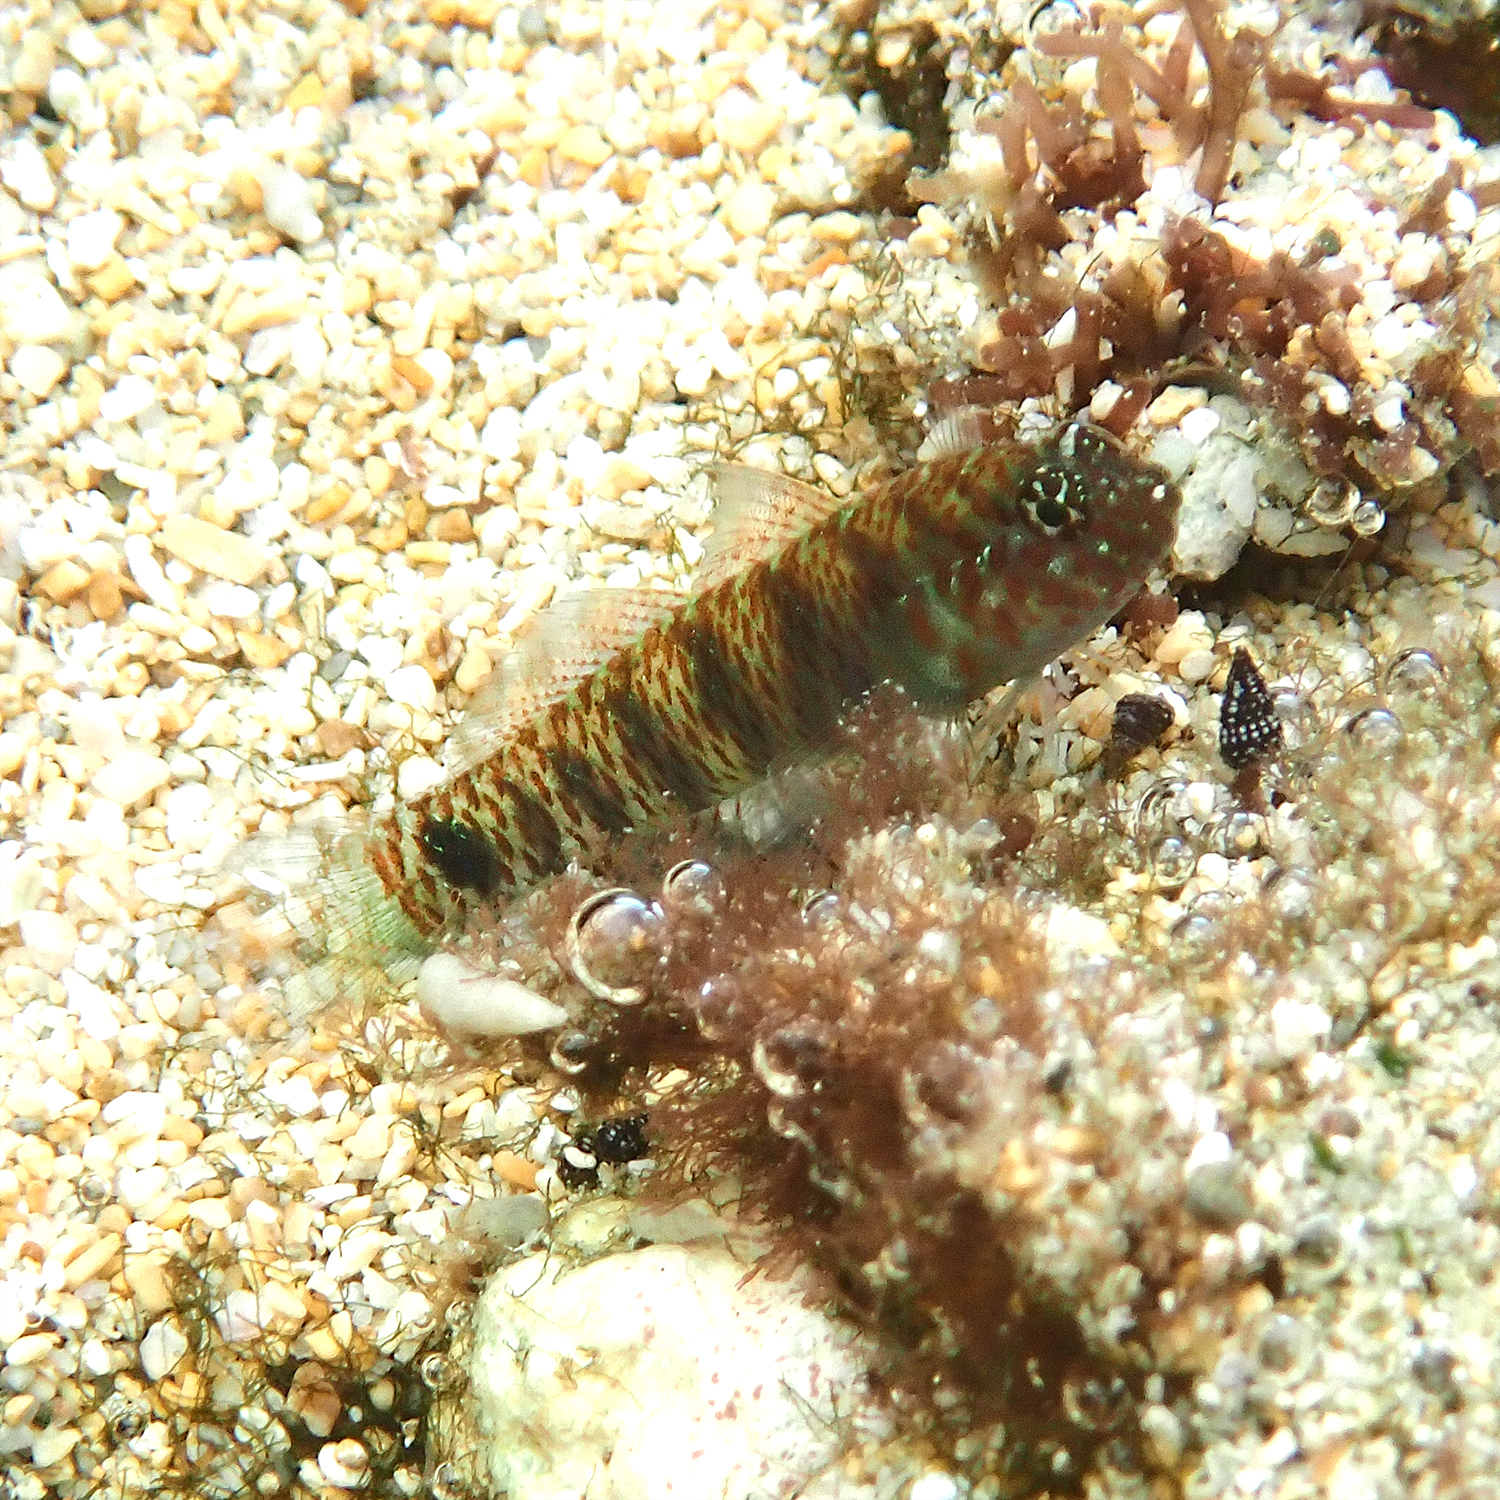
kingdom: Animalia
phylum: Chordata
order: Perciformes
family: Gobiidae
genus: Eviota
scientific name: Eviota hoesei
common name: Doug's eviota
